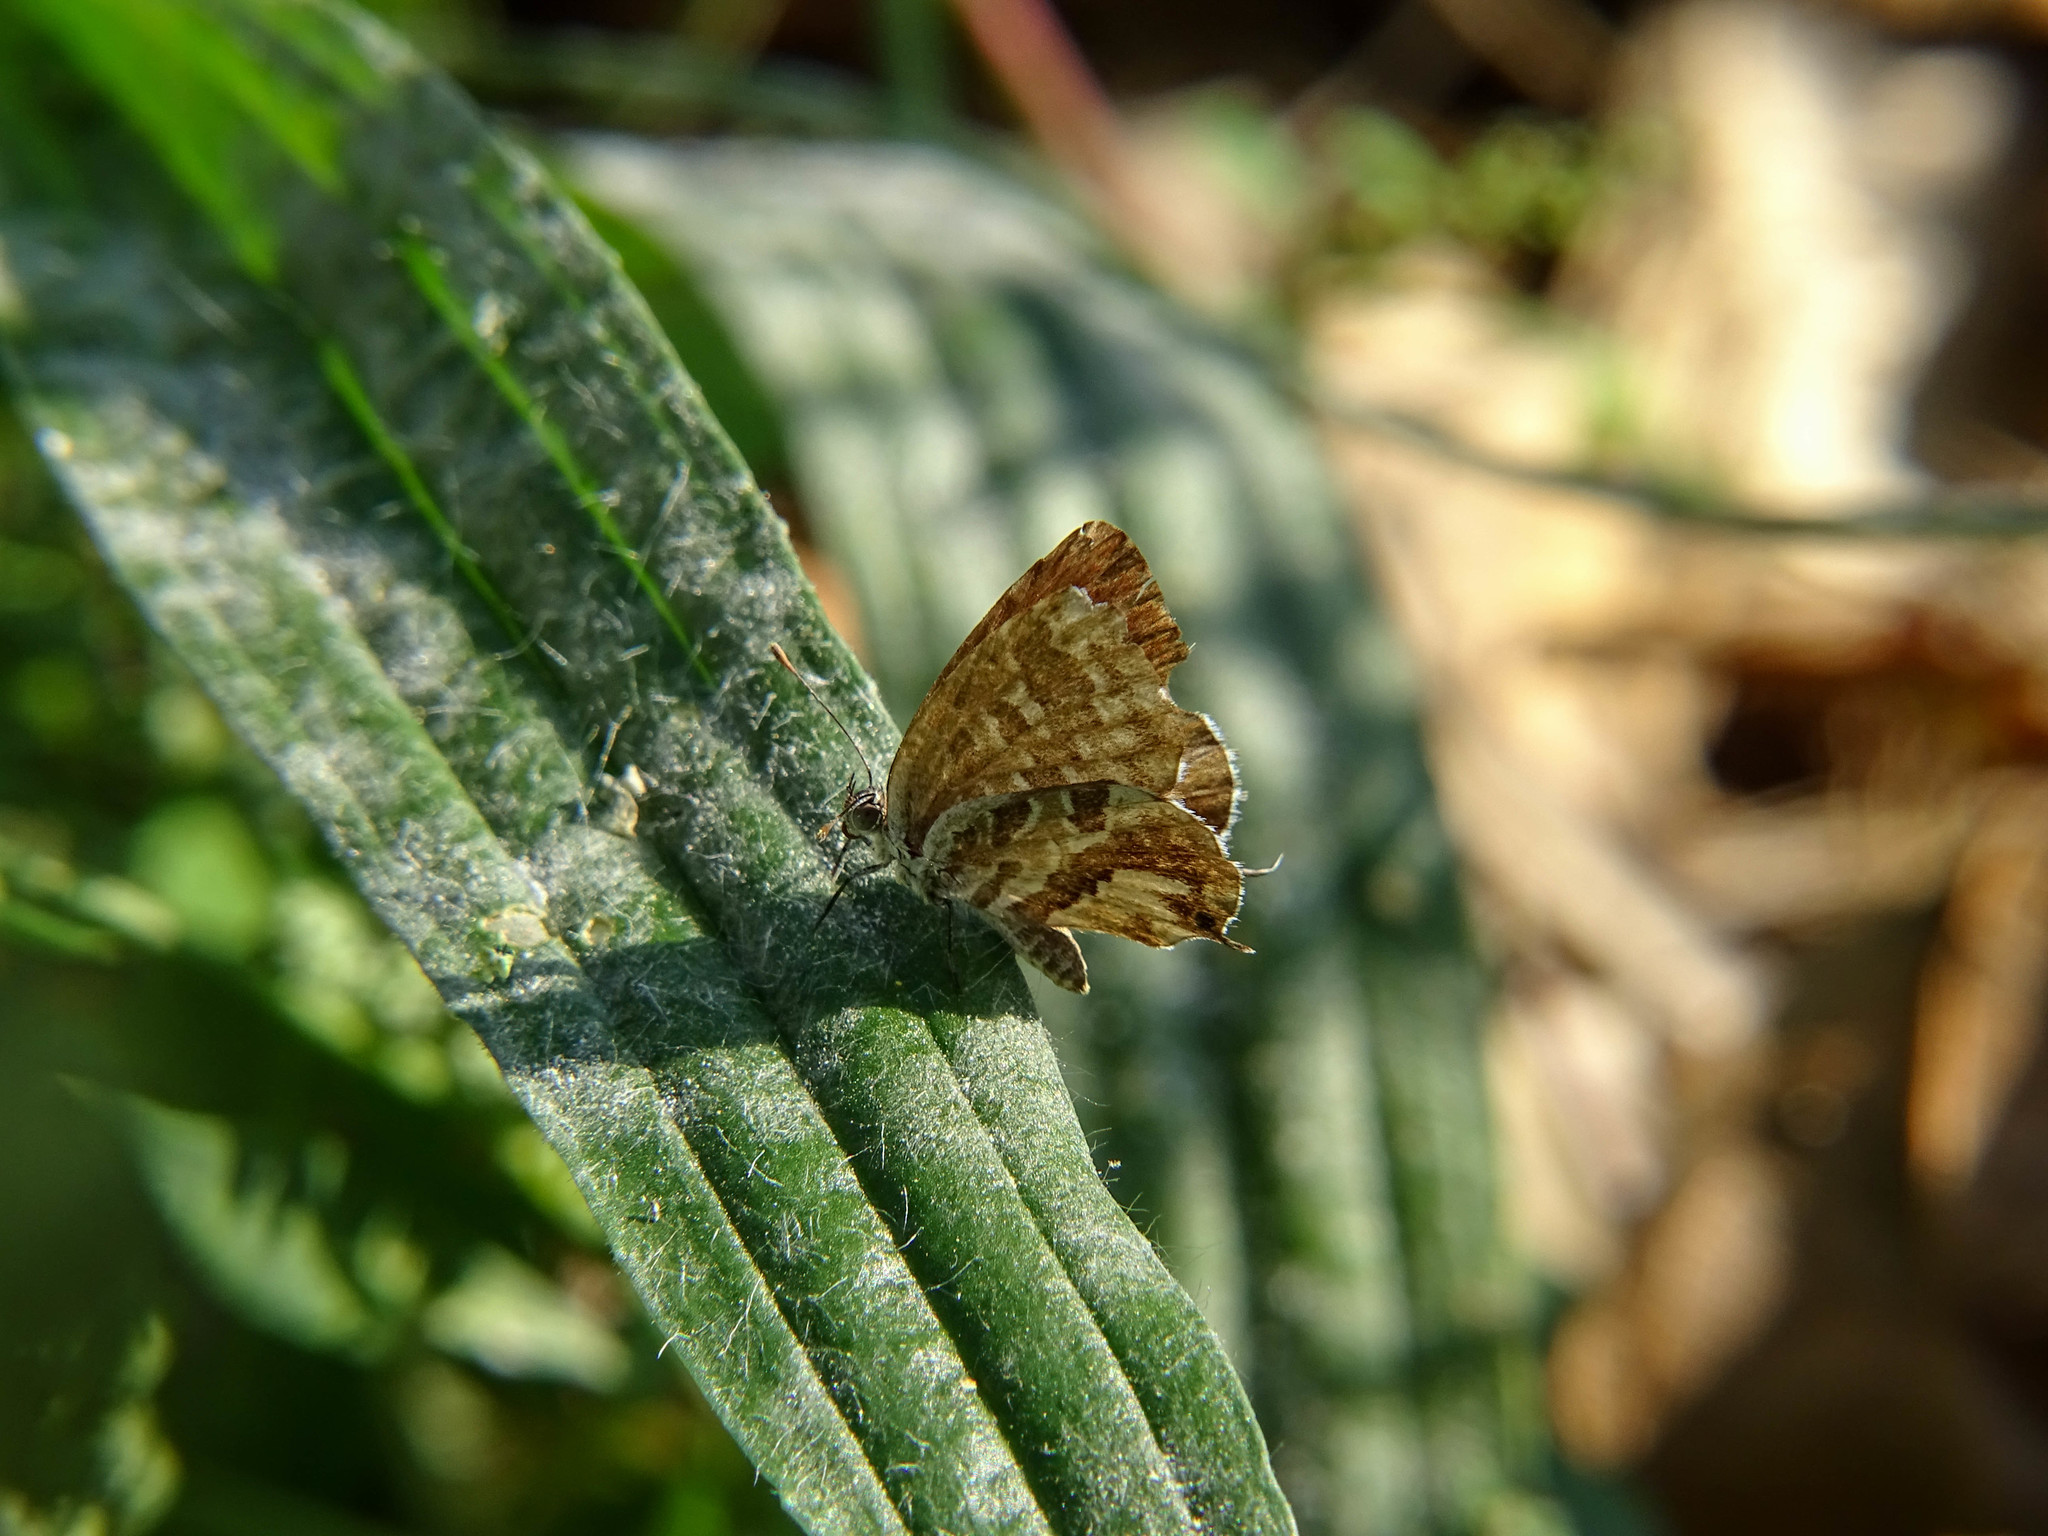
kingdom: Animalia
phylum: Arthropoda
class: Insecta
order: Lepidoptera
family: Lycaenidae
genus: Cacyreus
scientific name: Cacyreus marshalli
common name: Geranium bronze
